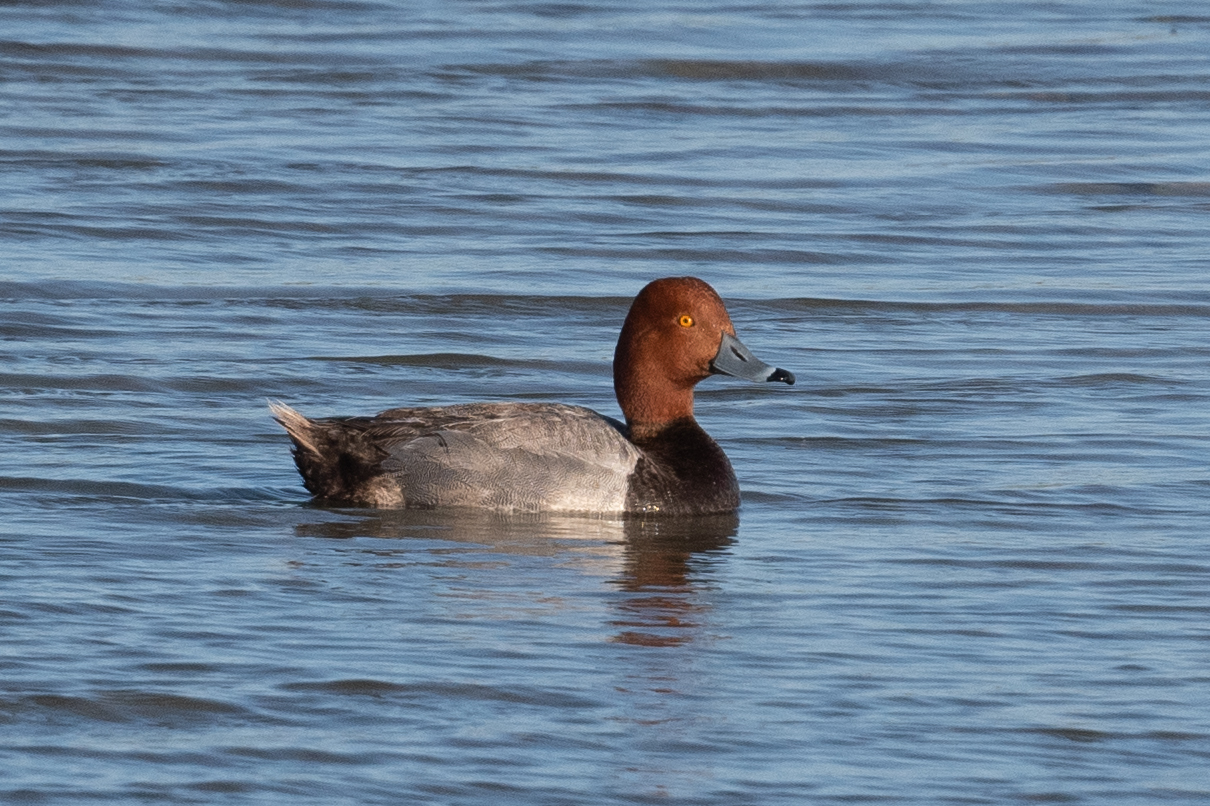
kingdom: Animalia
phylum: Chordata
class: Aves
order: Anseriformes
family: Anatidae
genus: Aythya
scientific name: Aythya americana
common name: Redhead
